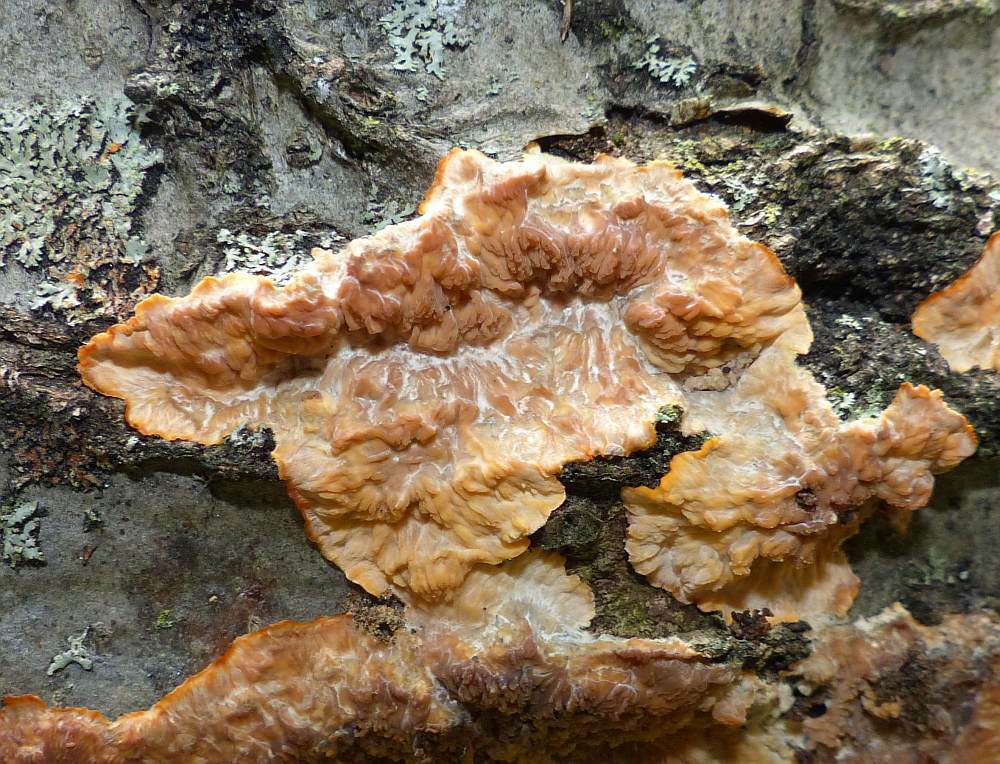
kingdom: Fungi
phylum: Basidiomycota
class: Agaricomycetes
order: Polyporales
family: Meruliaceae
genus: Phlebia
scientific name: Phlebia radiata
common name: Wrinkled crust
